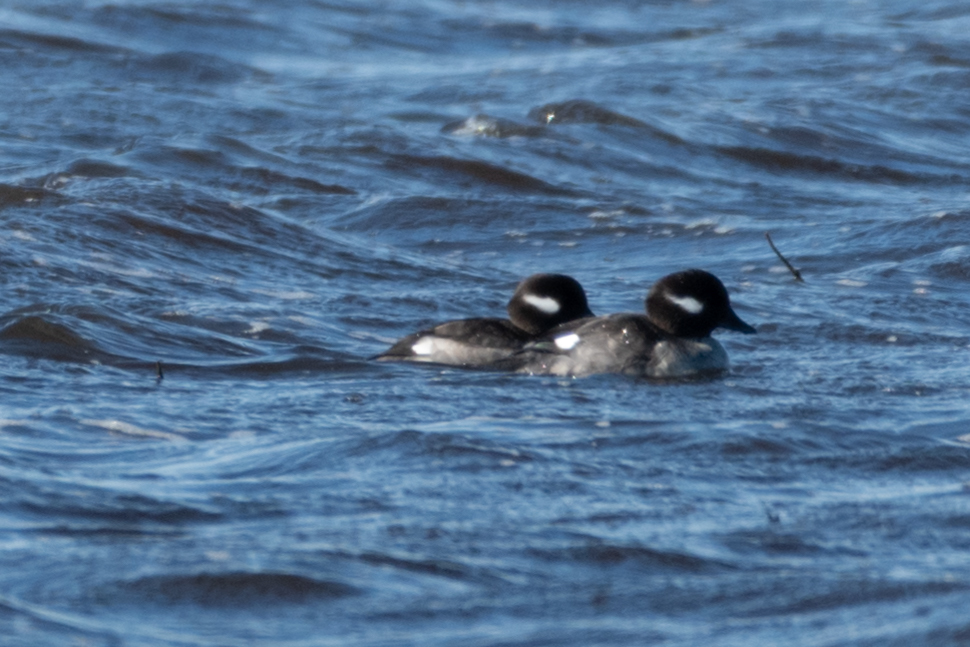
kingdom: Animalia
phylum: Chordata
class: Aves
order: Anseriformes
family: Anatidae
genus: Bucephala
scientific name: Bucephala albeola
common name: Bufflehead
